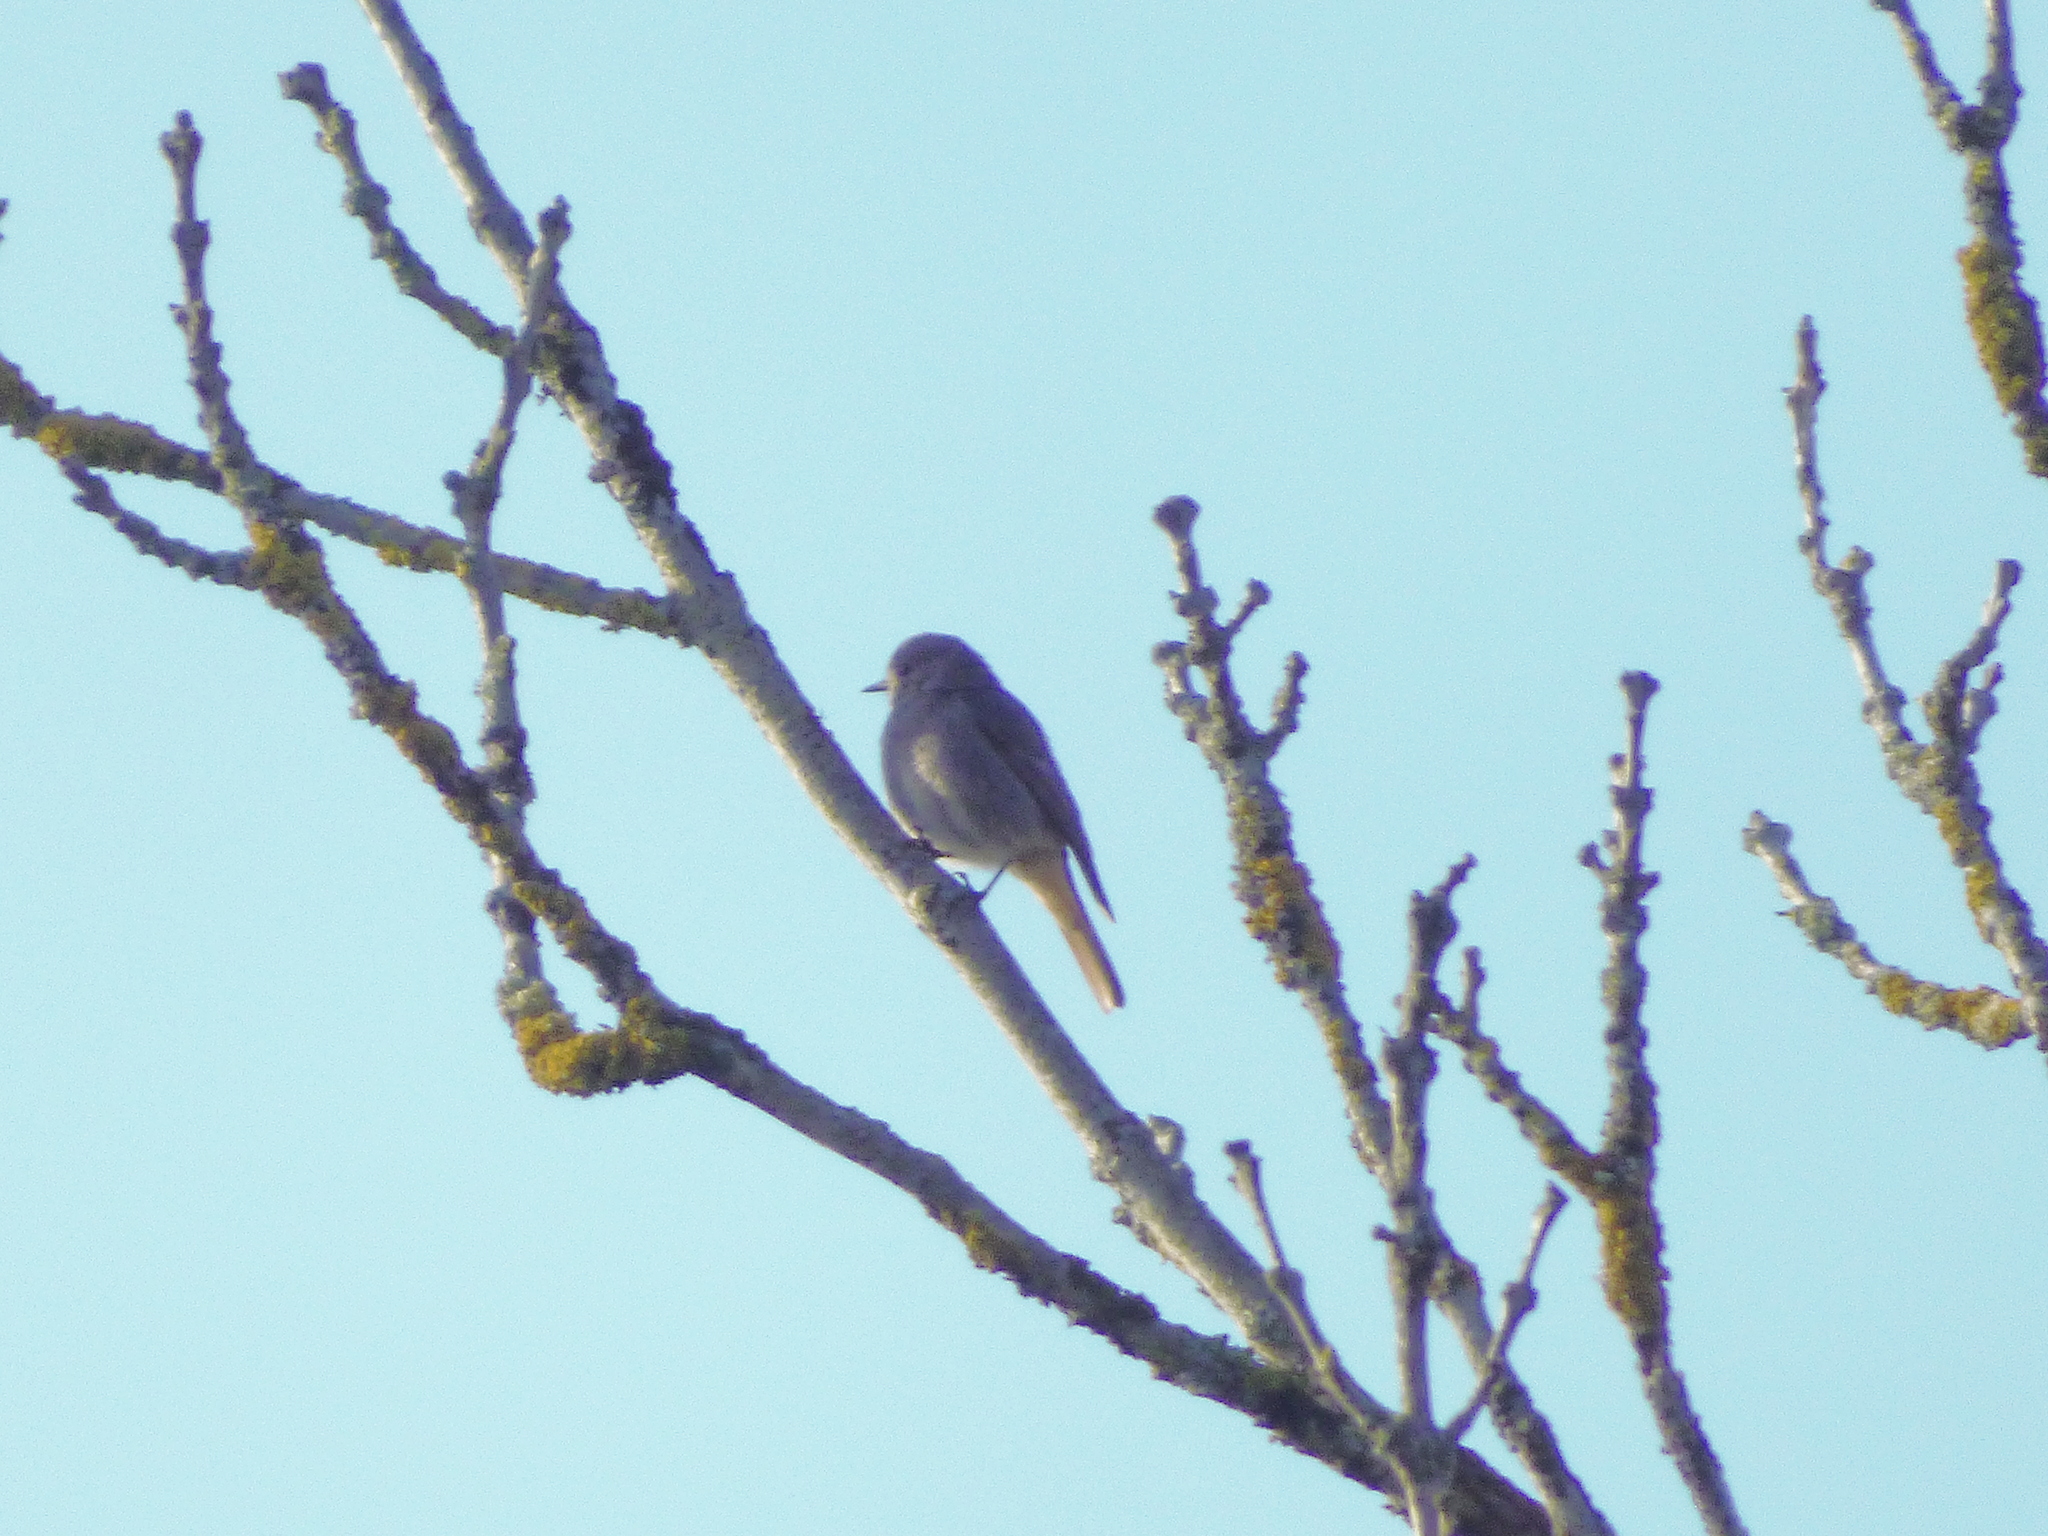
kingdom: Animalia
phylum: Chordata
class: Aves
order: Passeriformes
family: Muscicapidae
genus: Phoenicurus
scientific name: Phoenicurus ochruros
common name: Black redstart
